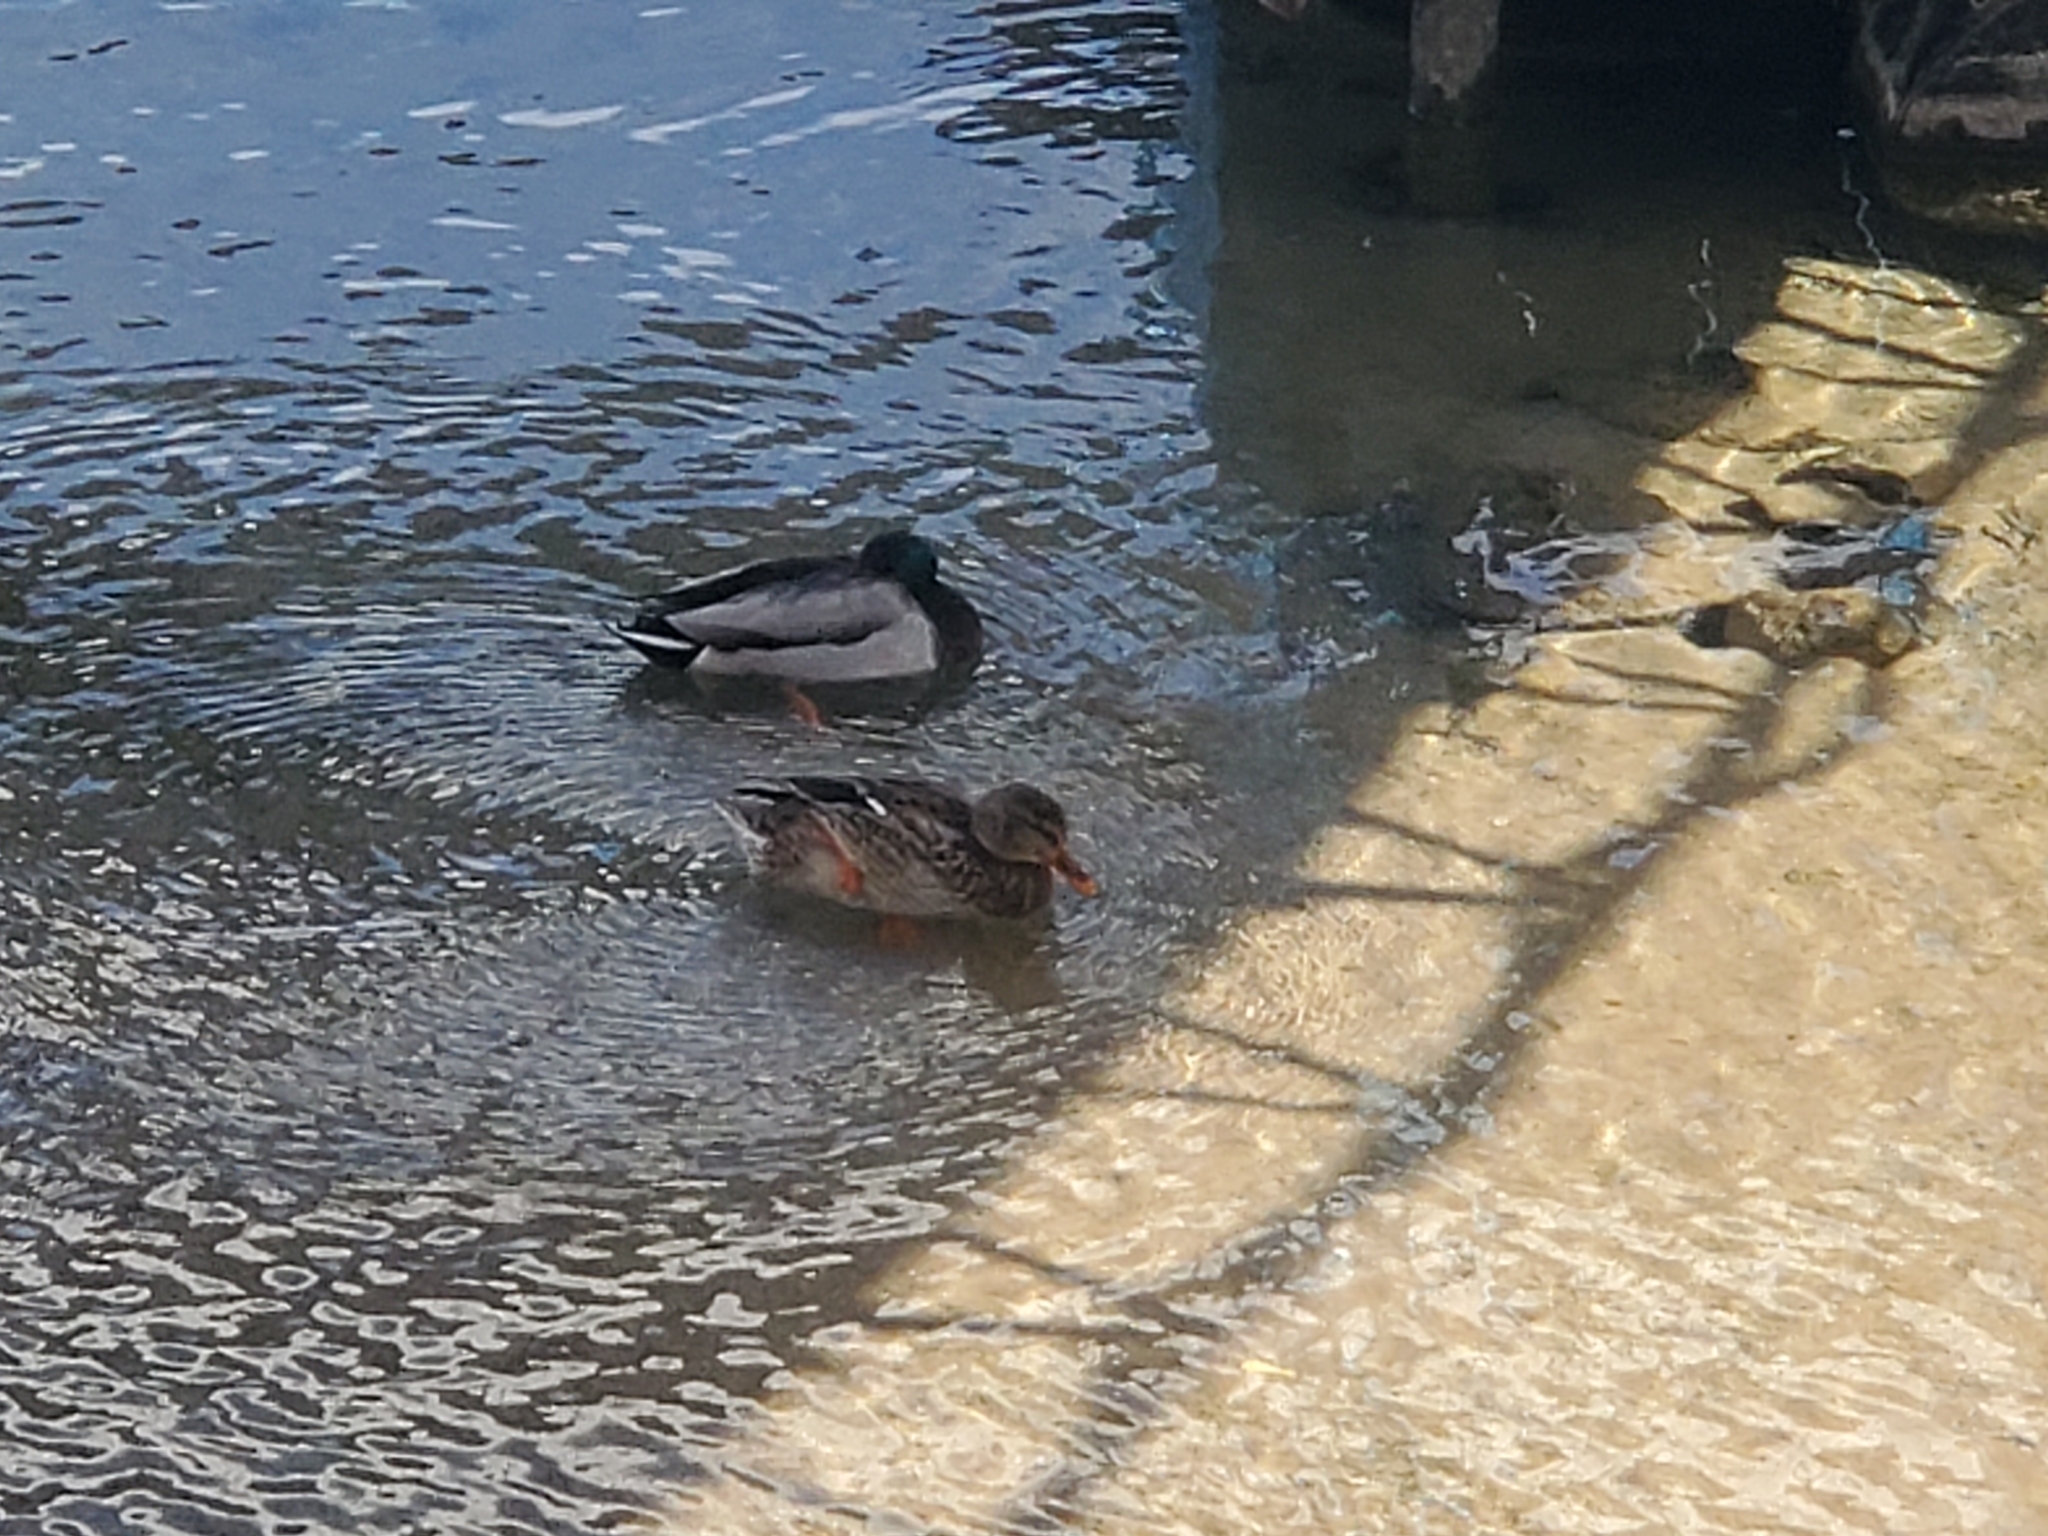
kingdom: Animalia
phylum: Chordata
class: Aves
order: Anseriformes
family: Anatidae
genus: Anas
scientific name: Anas platyrhynchos
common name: Mallard
